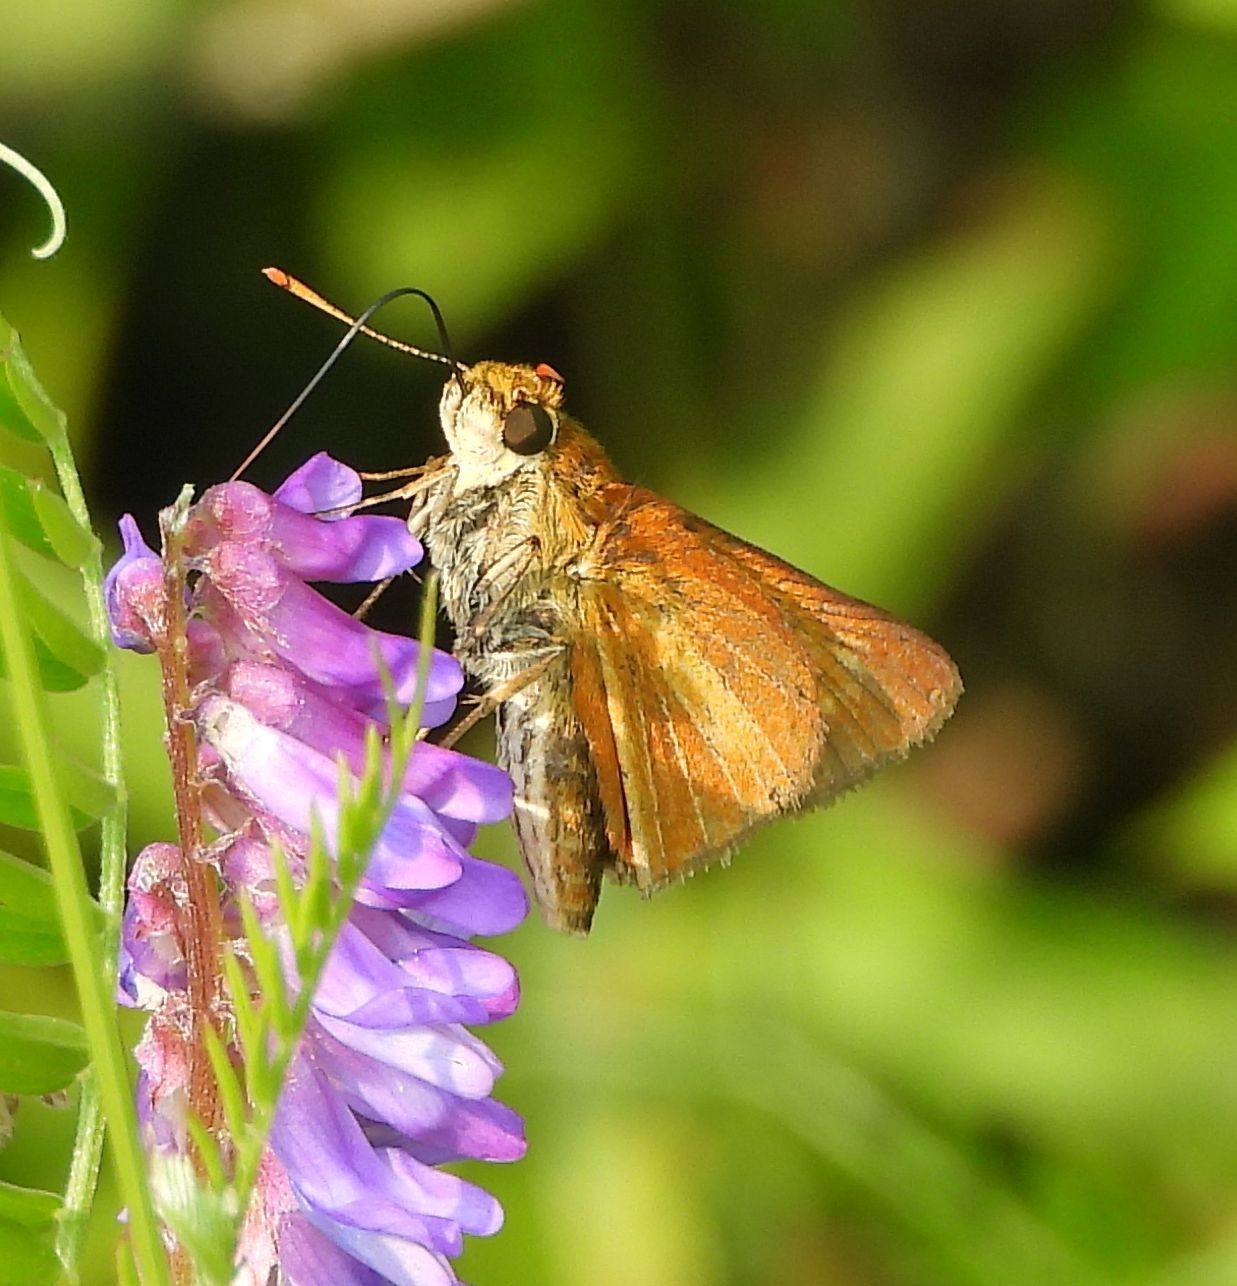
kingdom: Animalia
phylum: Arthropoda
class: Insecta
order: Lepidoptera
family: Hesperiidae
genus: Euphyes
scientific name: Euphyes dion
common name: Dion skipper
